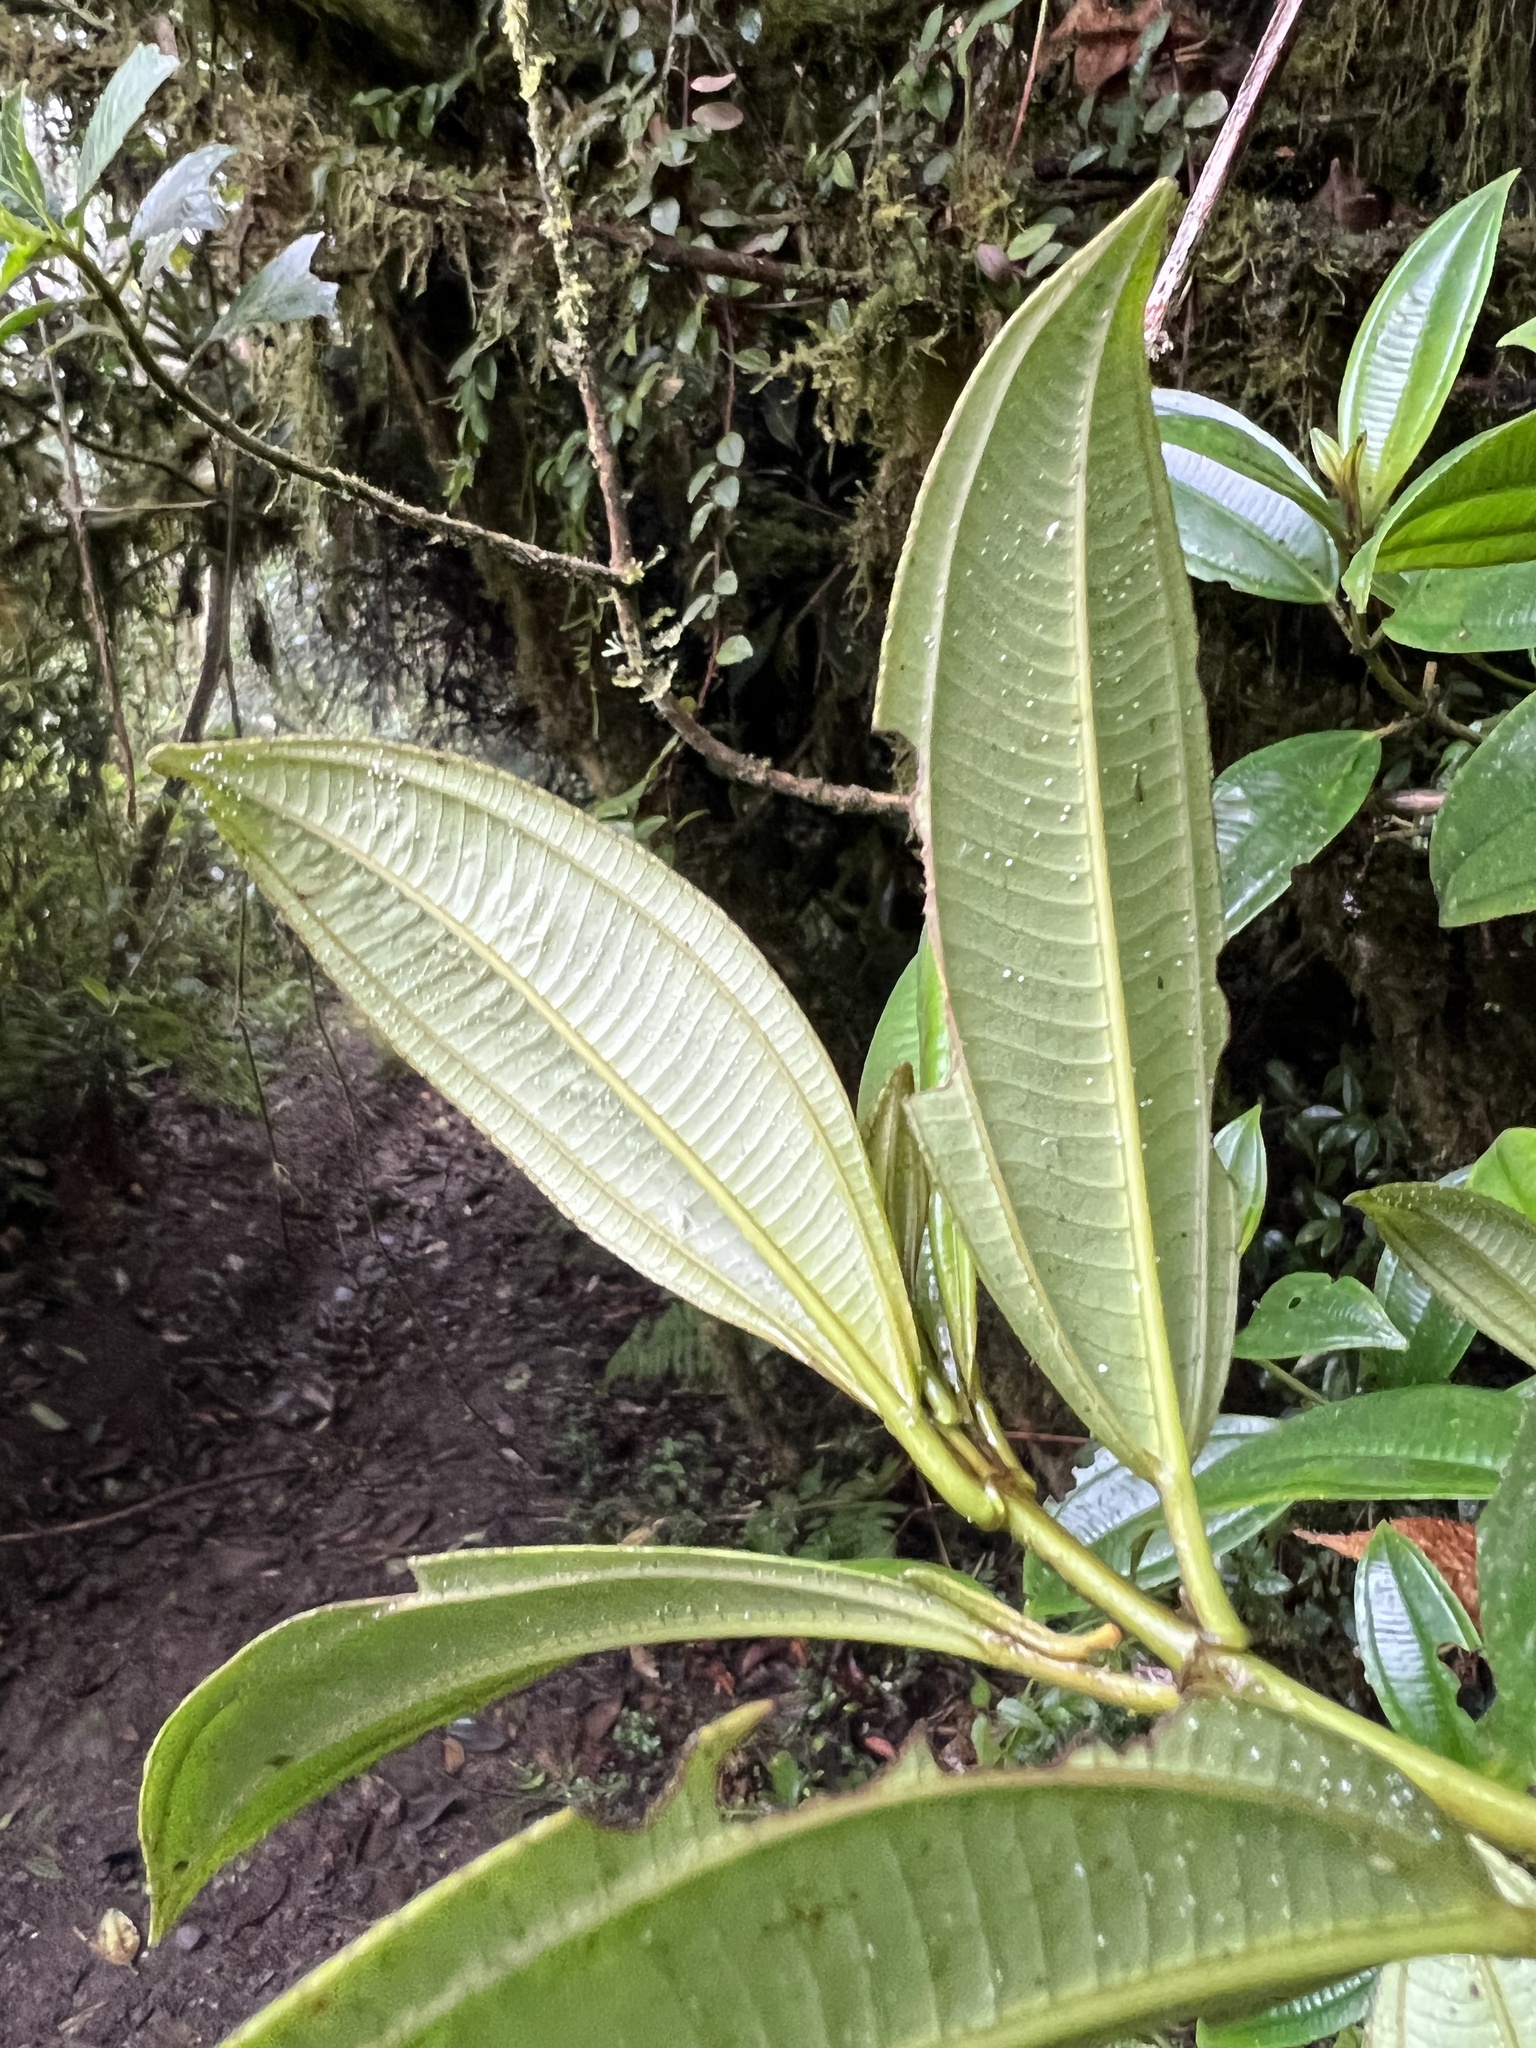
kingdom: Plantae
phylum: Tracheophyta
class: Magnoliopsida
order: Myrtales
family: Melastomataceae
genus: Miconia
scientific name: Miconia cremophylla
